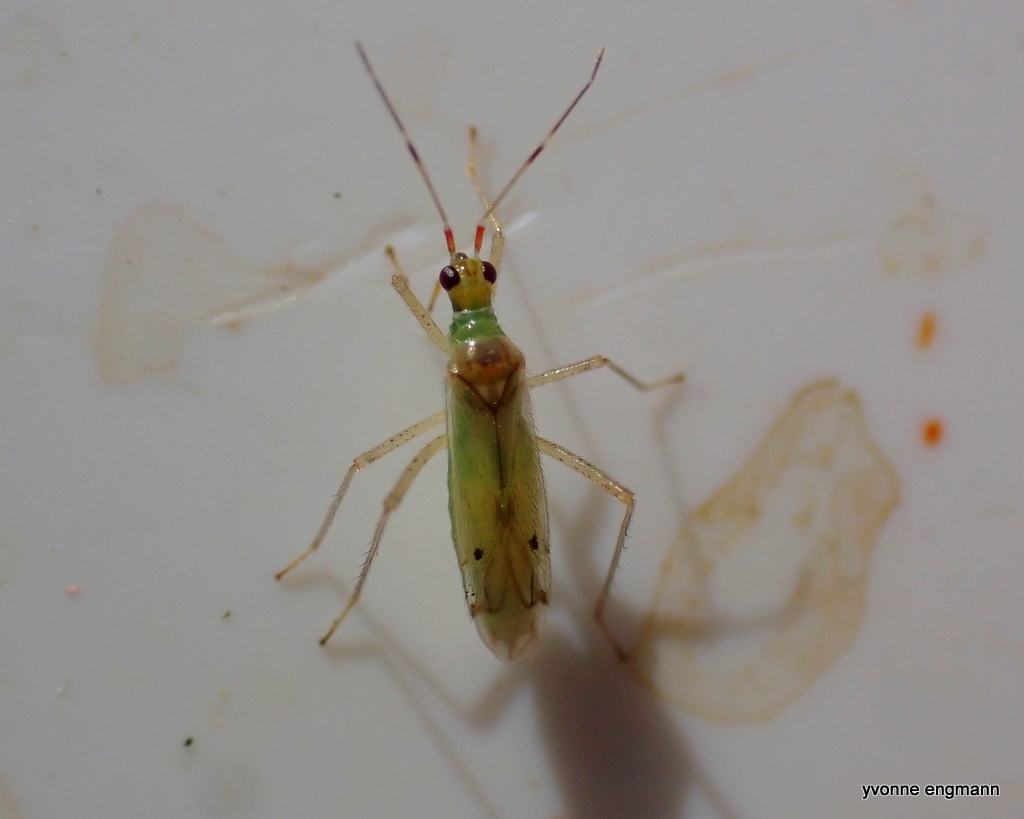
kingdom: Animalia
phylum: Arthropoda
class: Insecta
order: Hemiptera
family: Miridae
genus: Dicyphus
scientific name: Dicyphus epilobii
